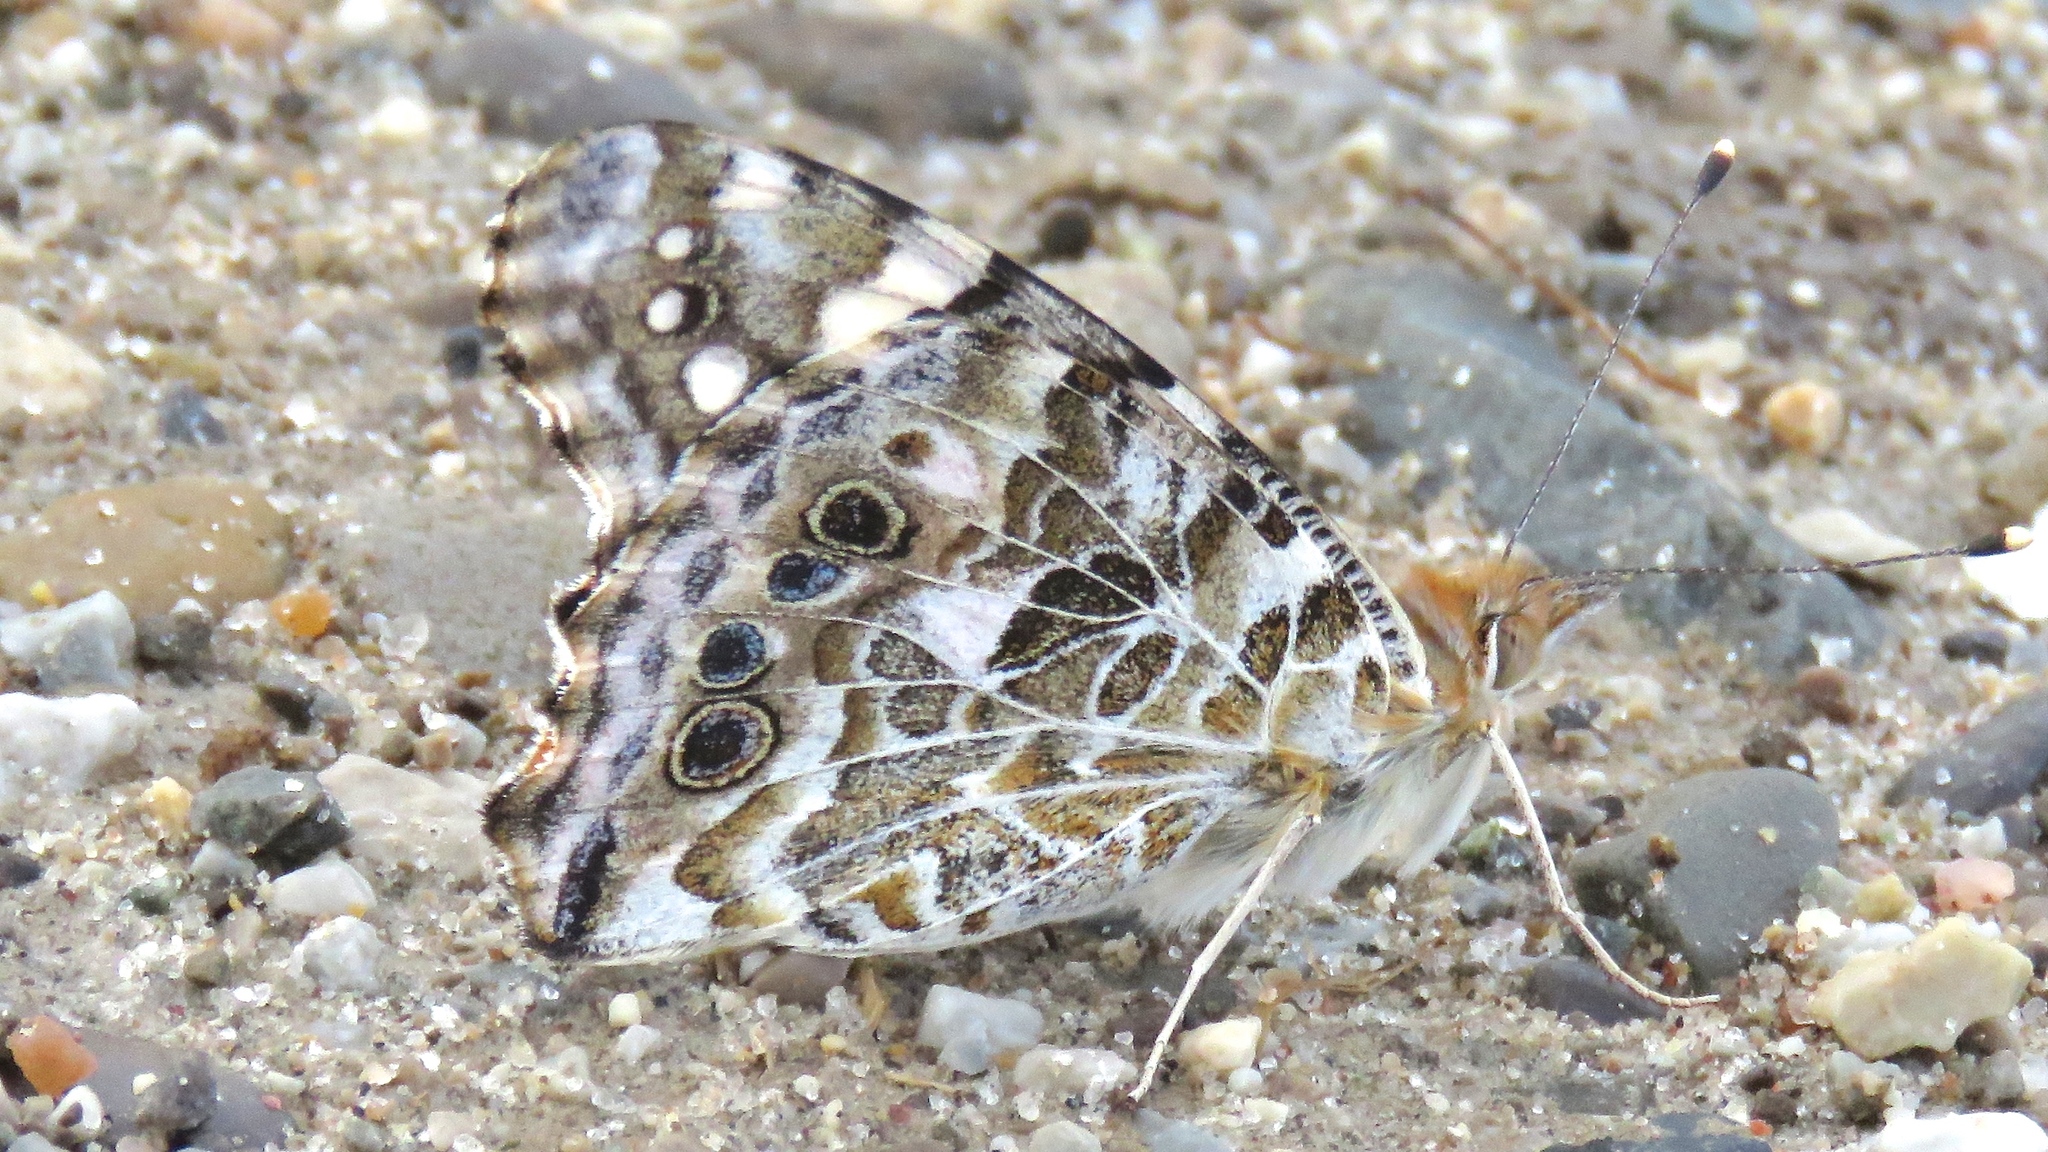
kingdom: Animalia
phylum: Arthropoda
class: Insecta
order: Lepidoptera
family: Nymphalidae
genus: Vanessa
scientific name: Vanessa cardui
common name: Painted lady
